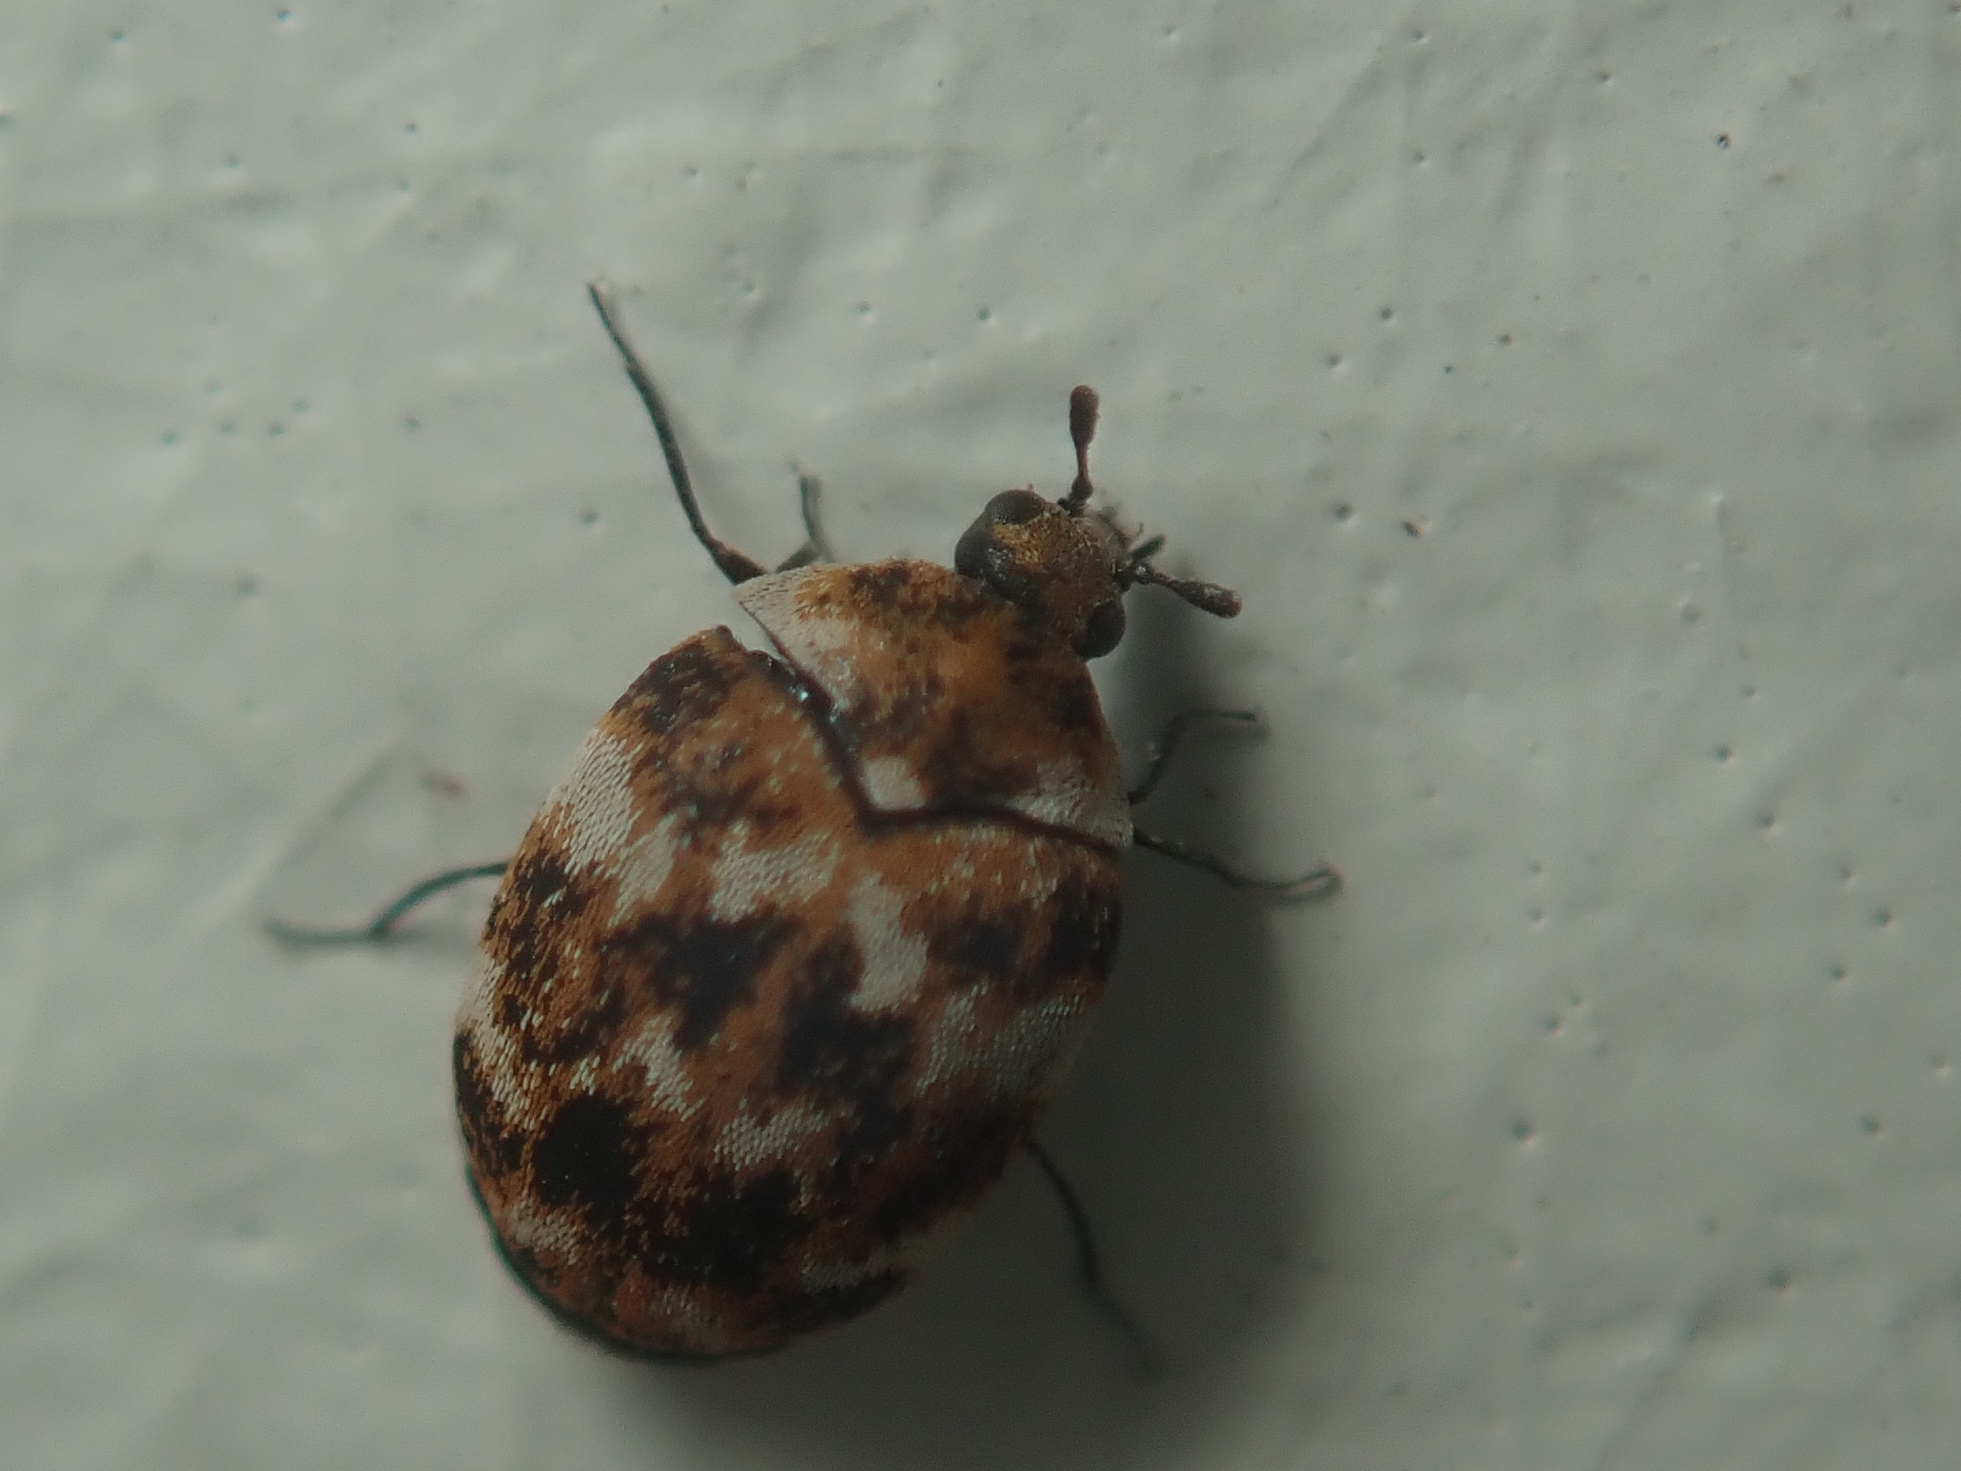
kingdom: Animalia
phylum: Arthropoda
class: Insecta
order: Coleoptera
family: Dermestidae
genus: Anthrenus
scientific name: Anthrenus verbasci
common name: Varied carpet beetle
